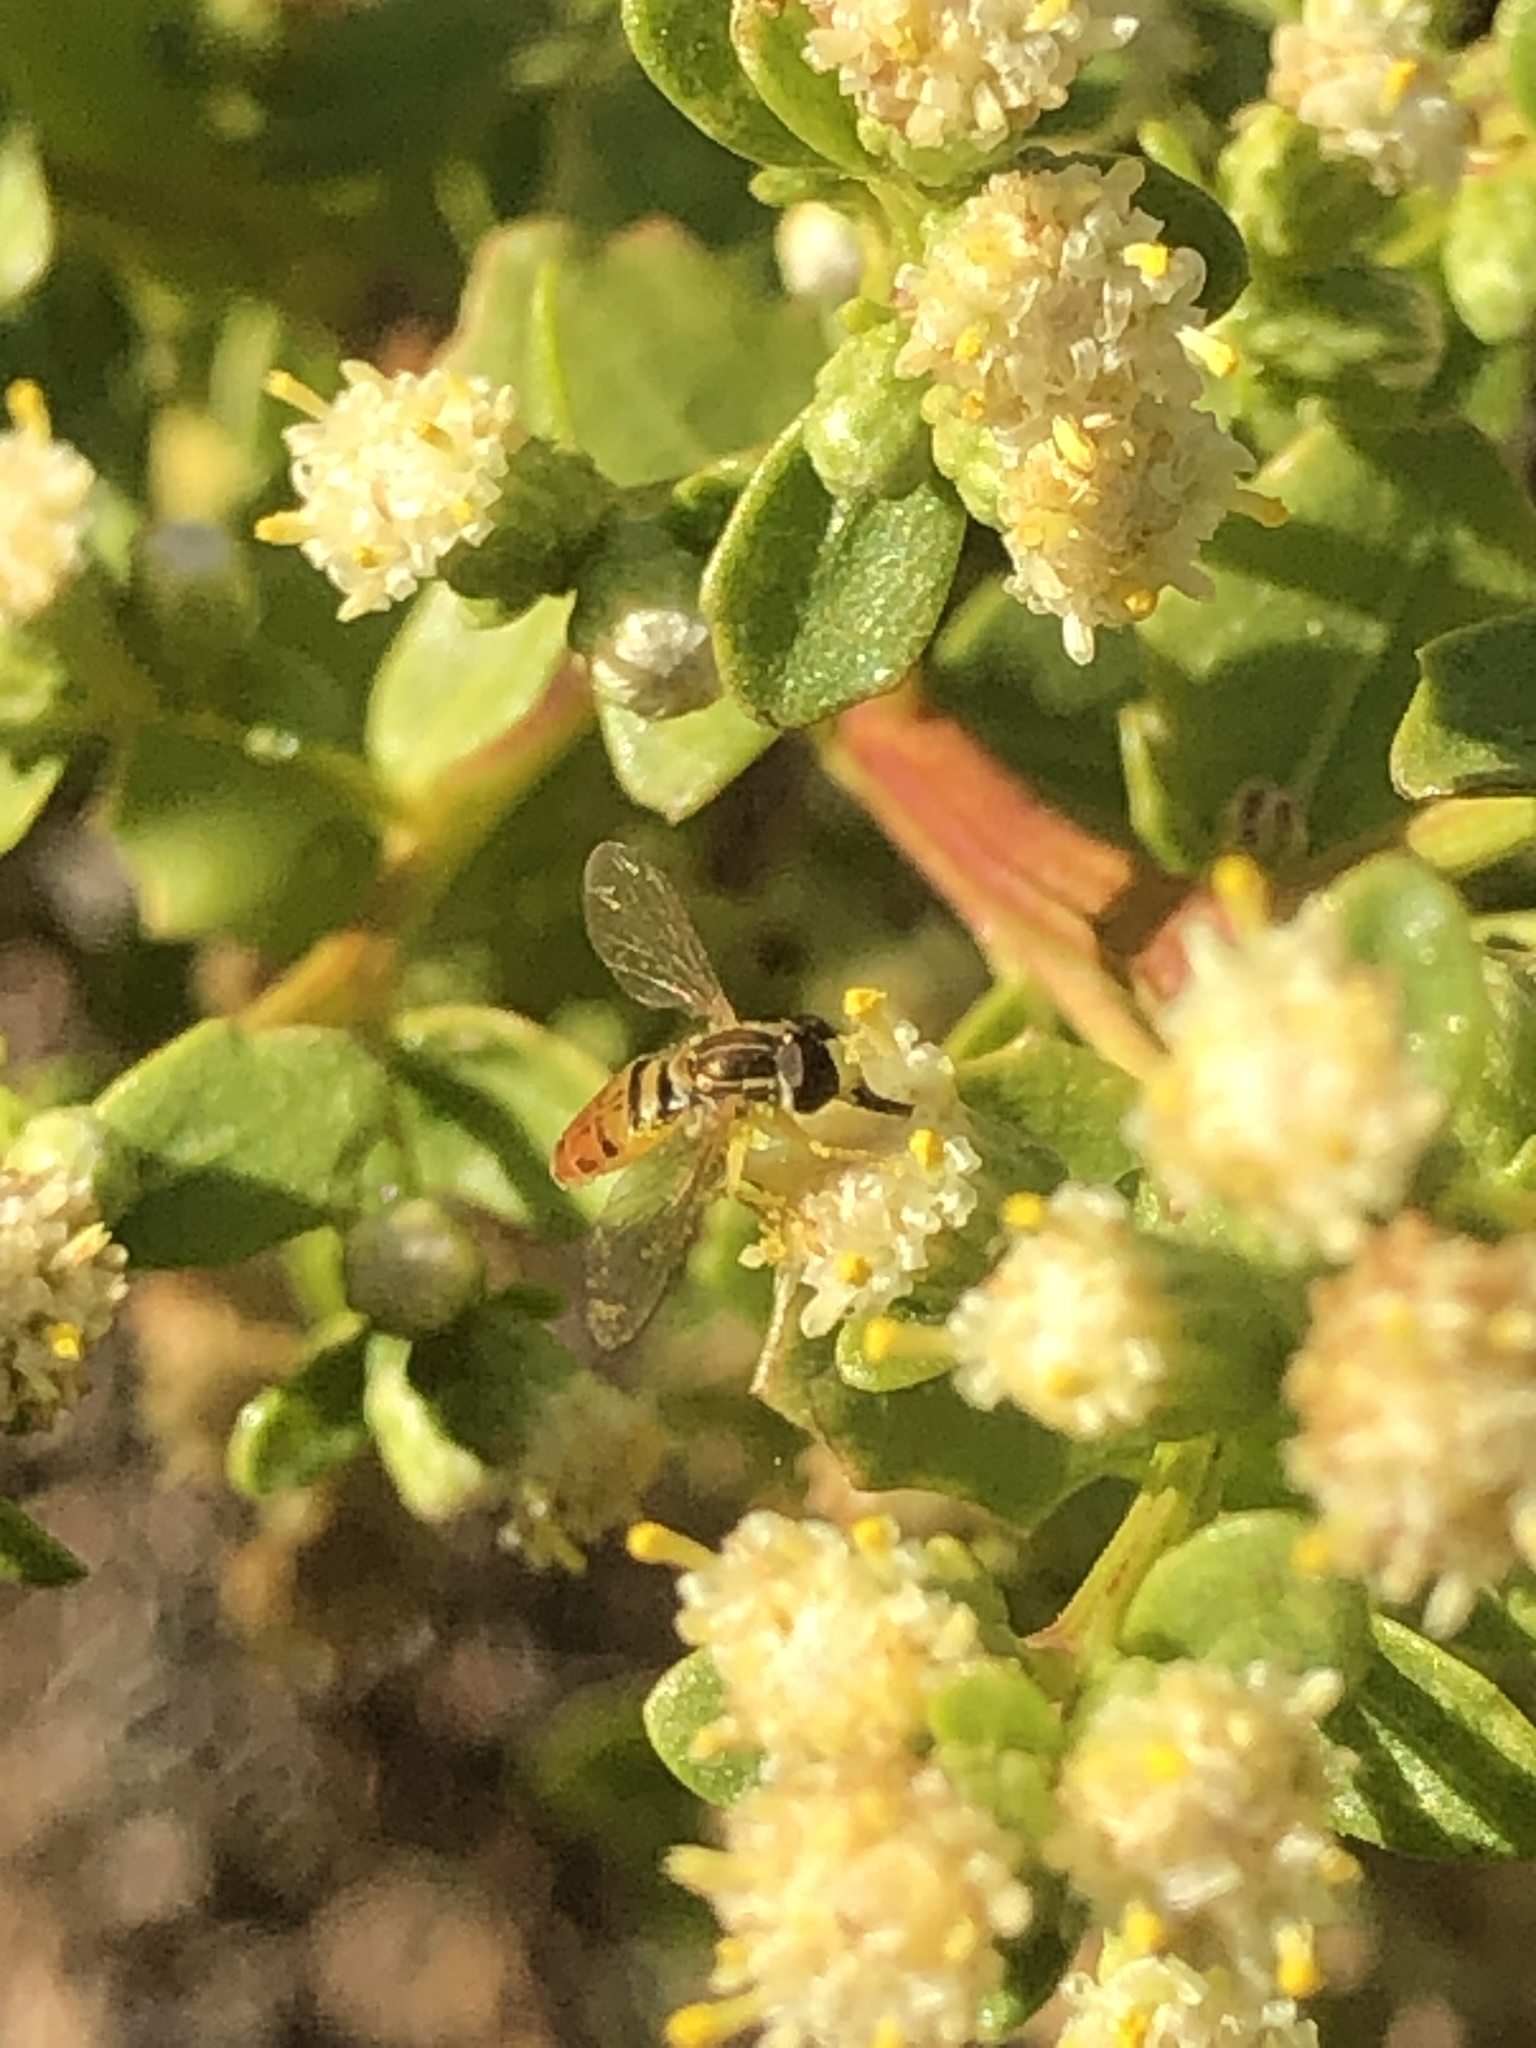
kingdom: Animalia
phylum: Arthropoda
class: Insecta
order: Diptera
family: Syrphidae
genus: Toxomerus
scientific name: Toxomerus marginatus
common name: Syrphid fly
